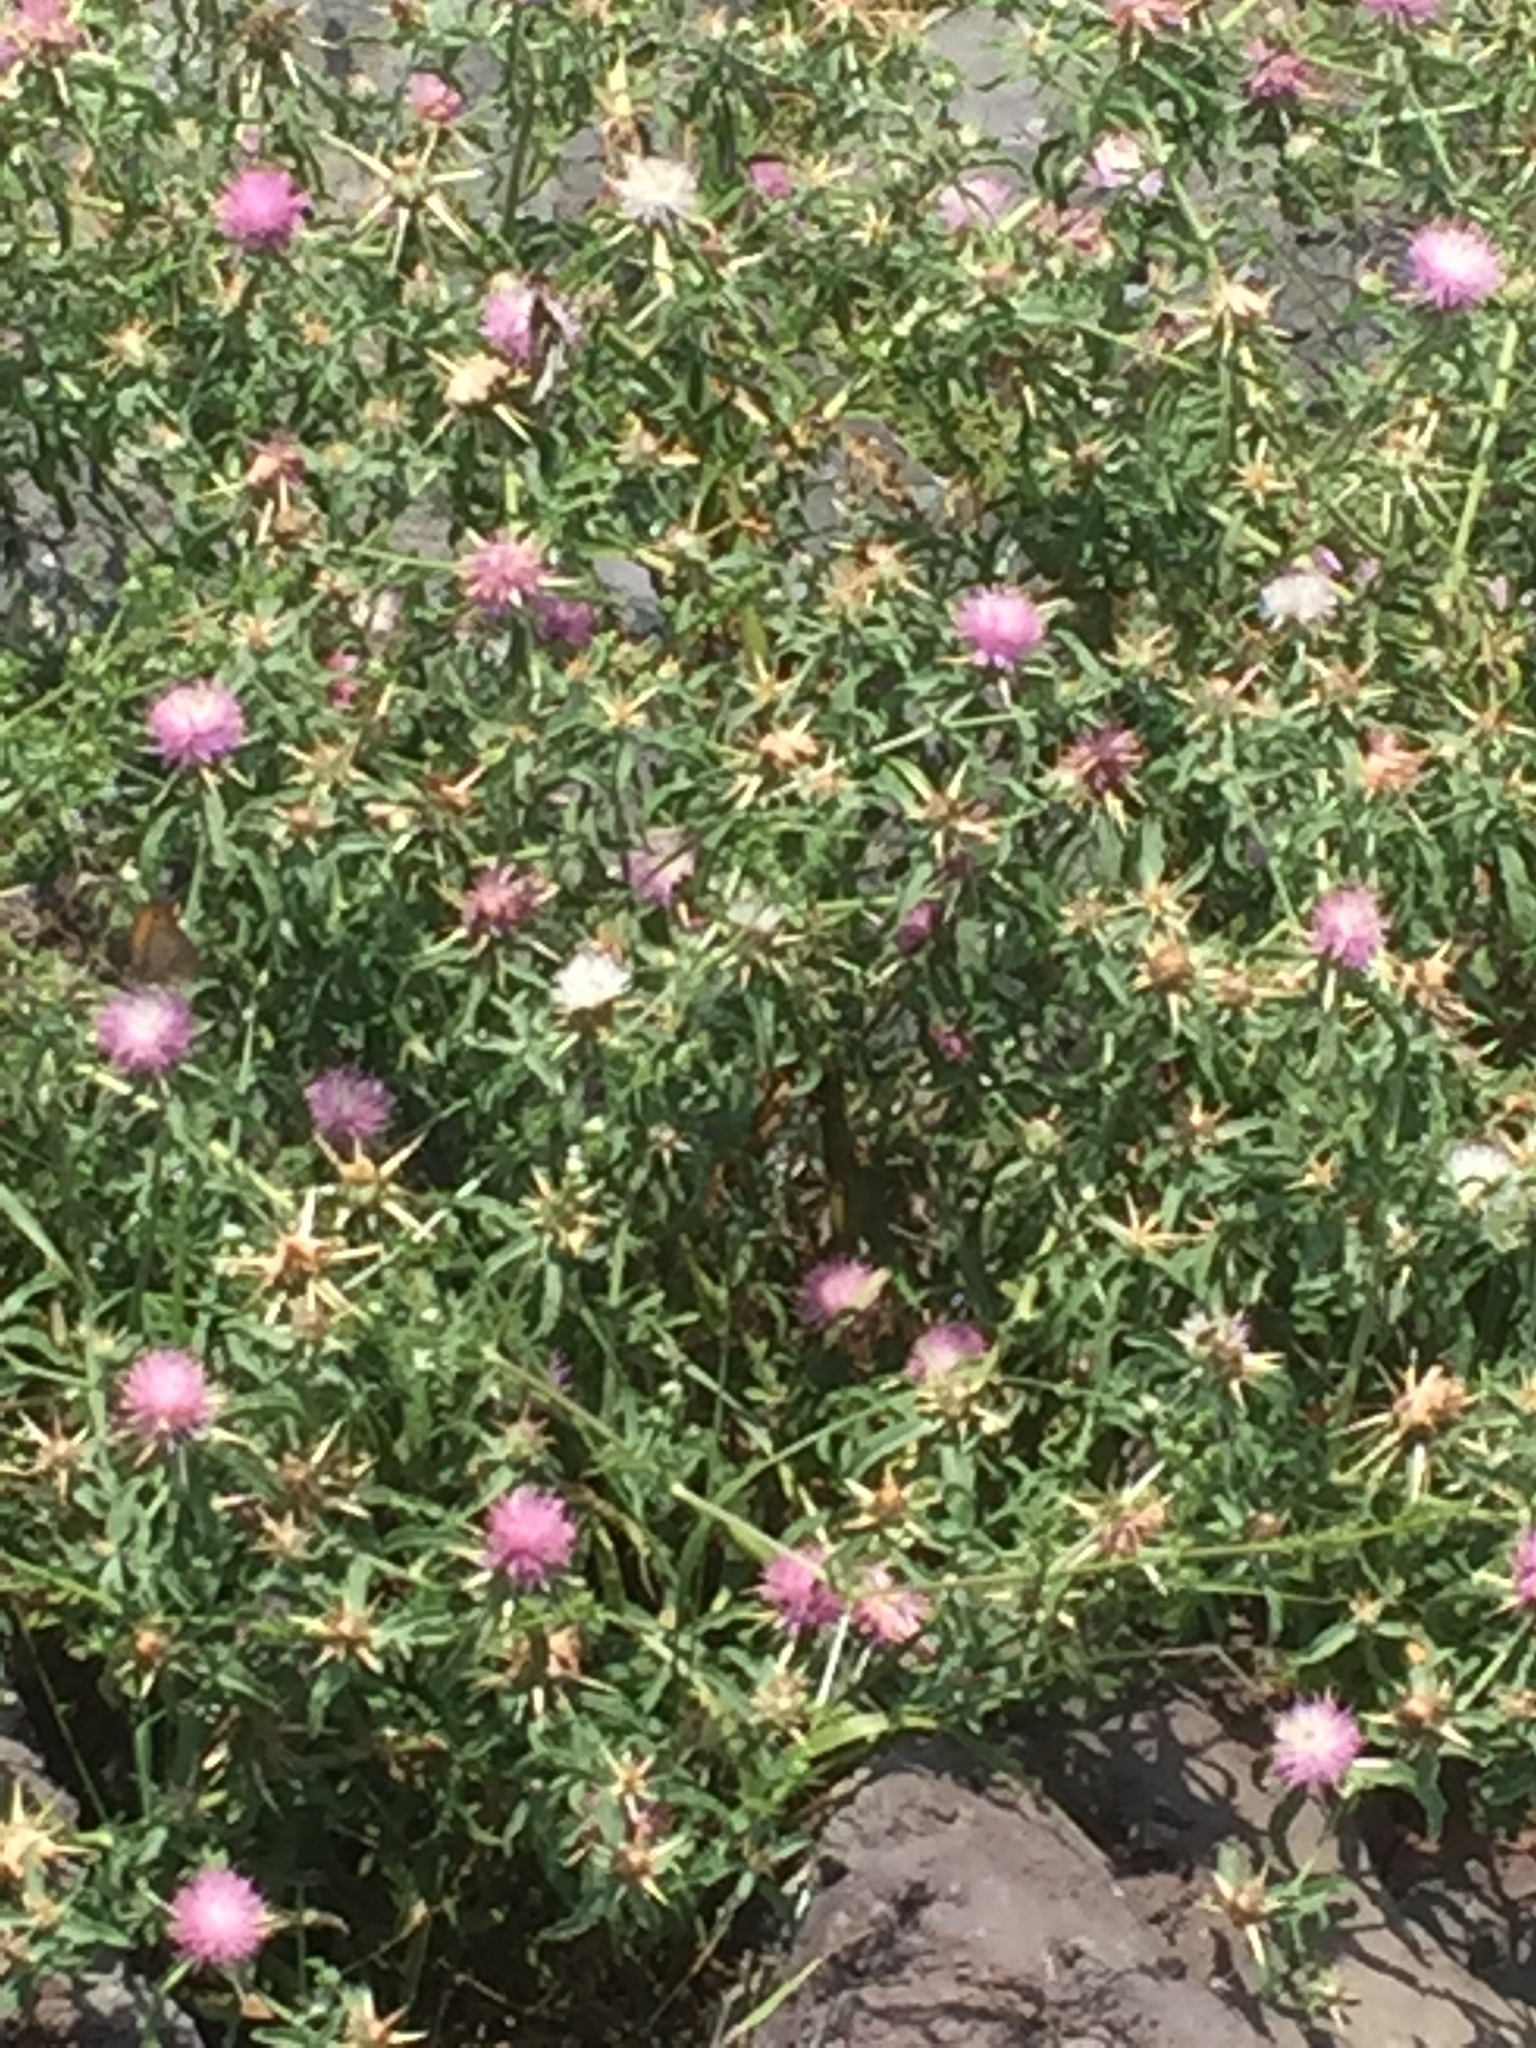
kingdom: Plantae
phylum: Tracheophyta
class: Magnoliopsida
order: Asterales
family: Asteraceae
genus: Centaurea
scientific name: Centaurea calcitrapa
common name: Red star-thistle
